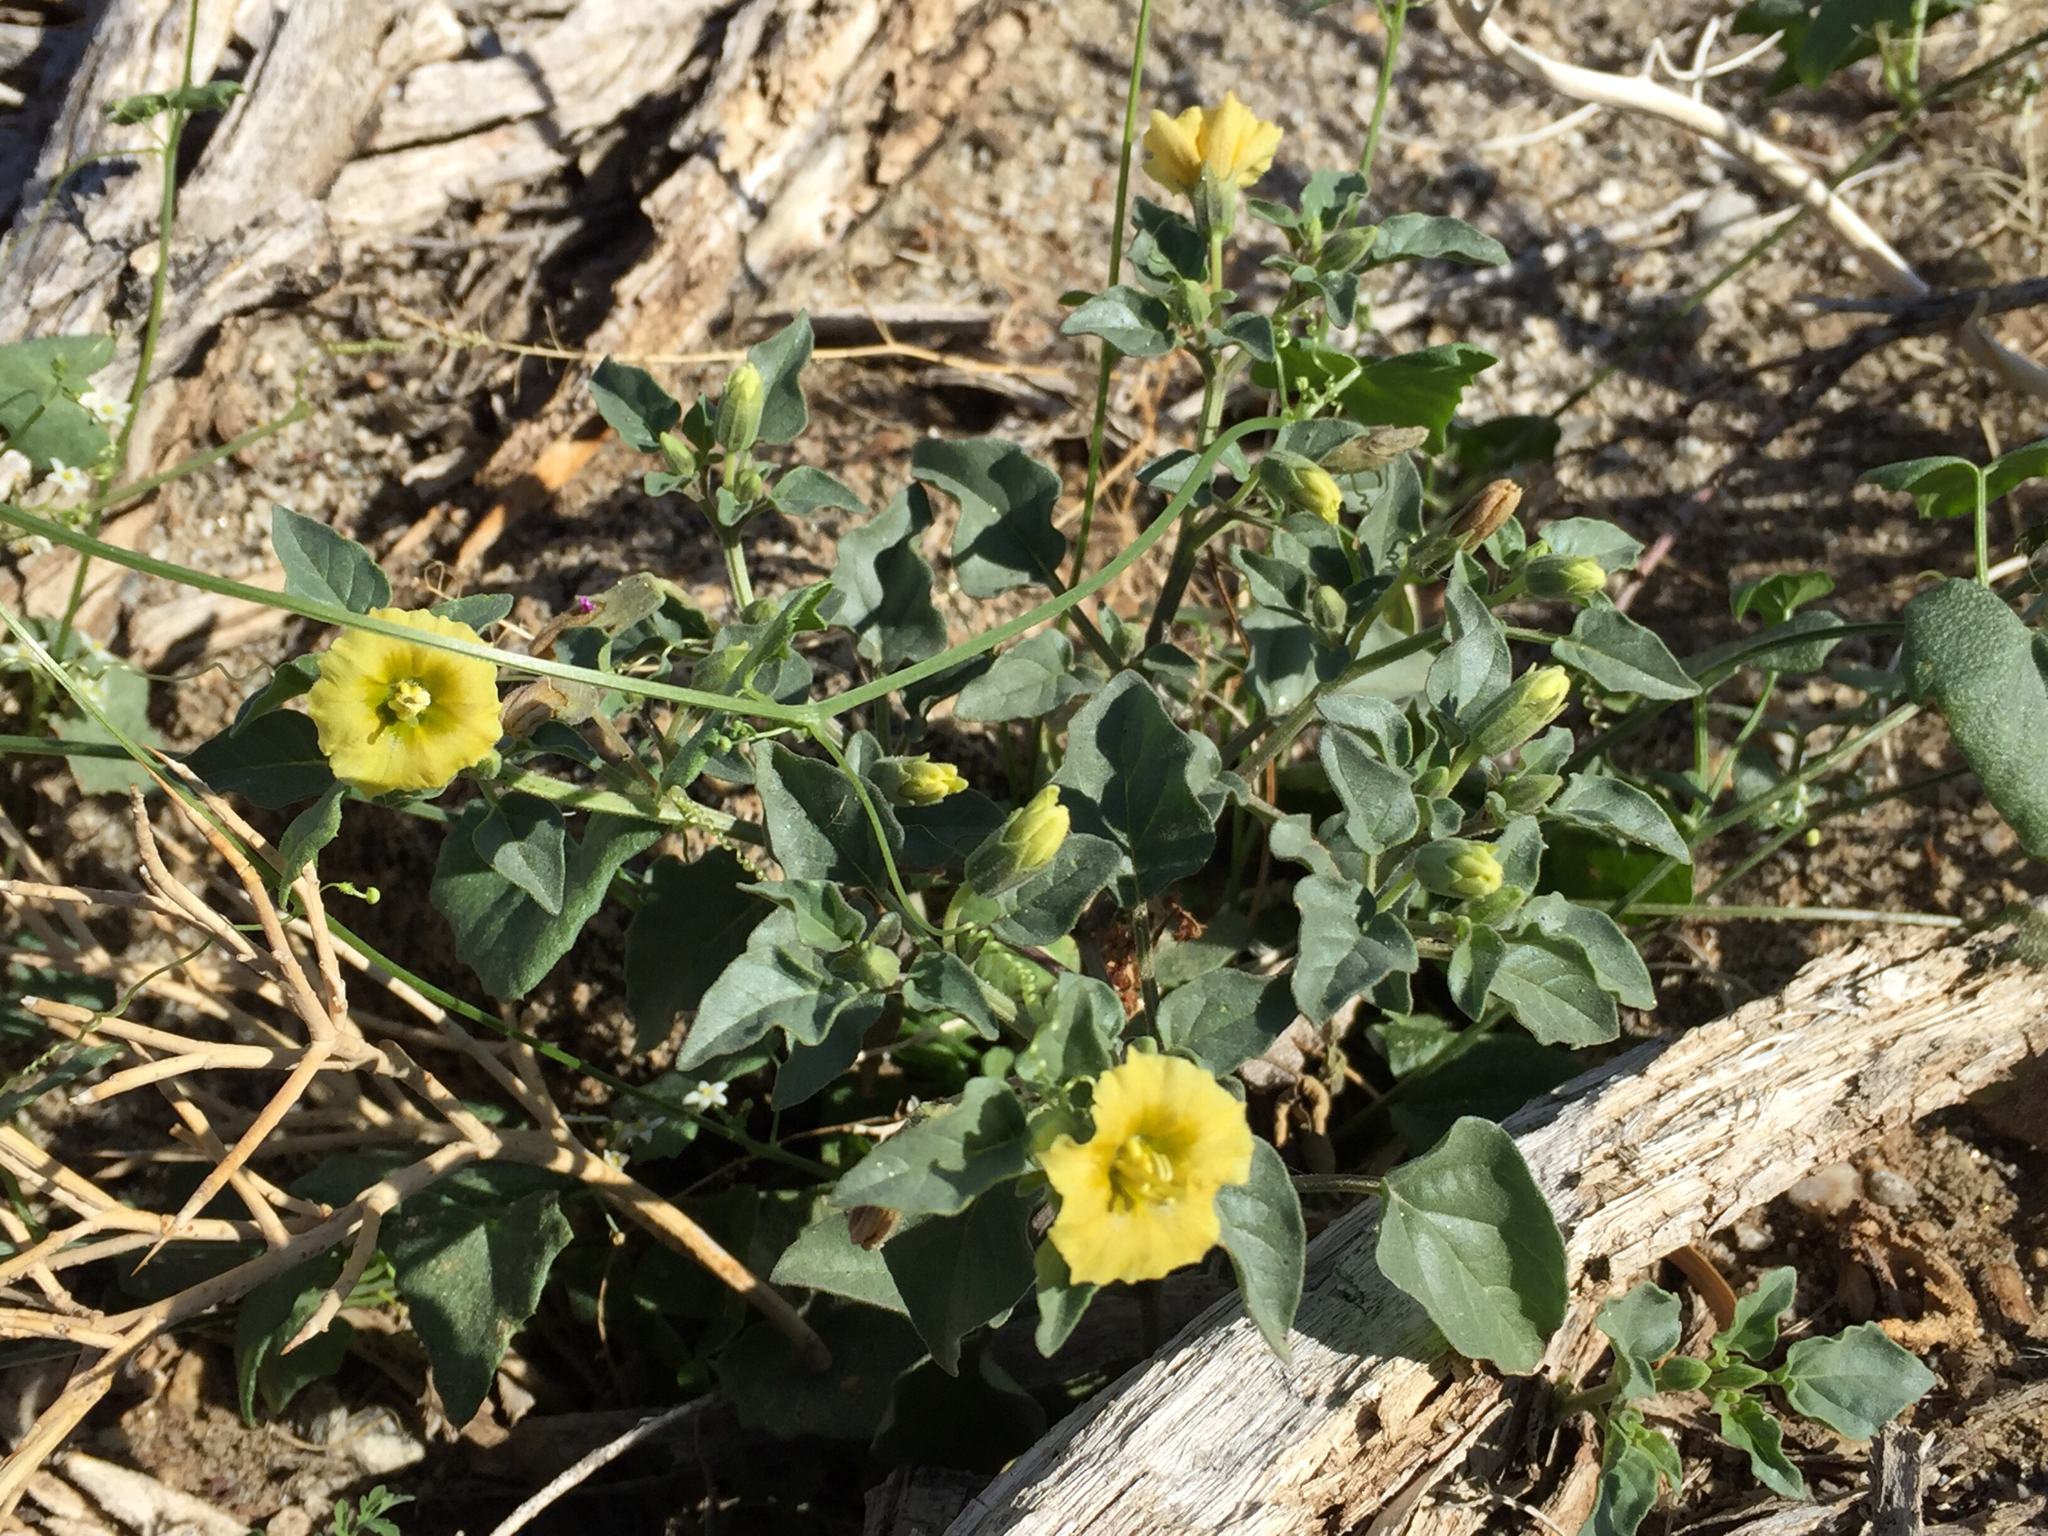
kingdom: Plantae
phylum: Tracheophyta
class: Magnoliopsida
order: Solanales
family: Solanaceae
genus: Physalis
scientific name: Physalis crassifolia
